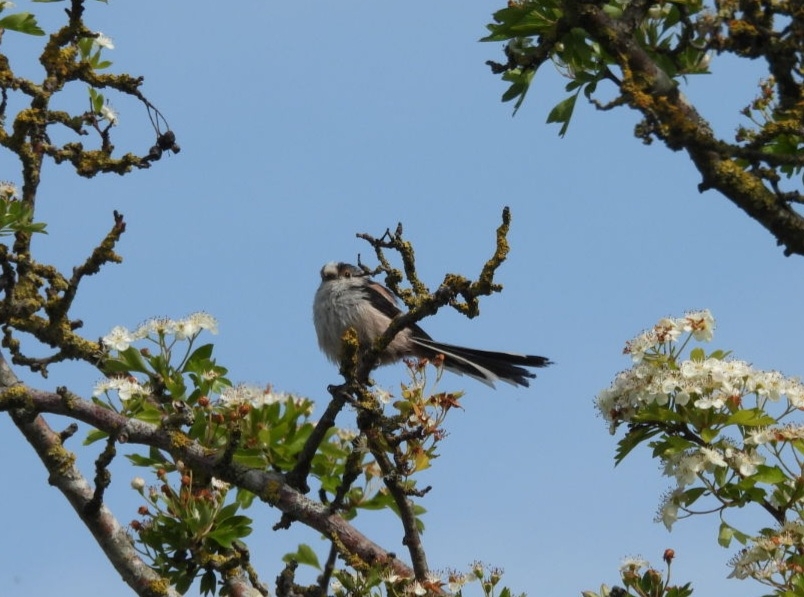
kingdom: Animalia
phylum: Chordata
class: Aves
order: Passeriformes
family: Aegithalidae
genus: Aegithalos
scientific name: Aegithalos caudatus
